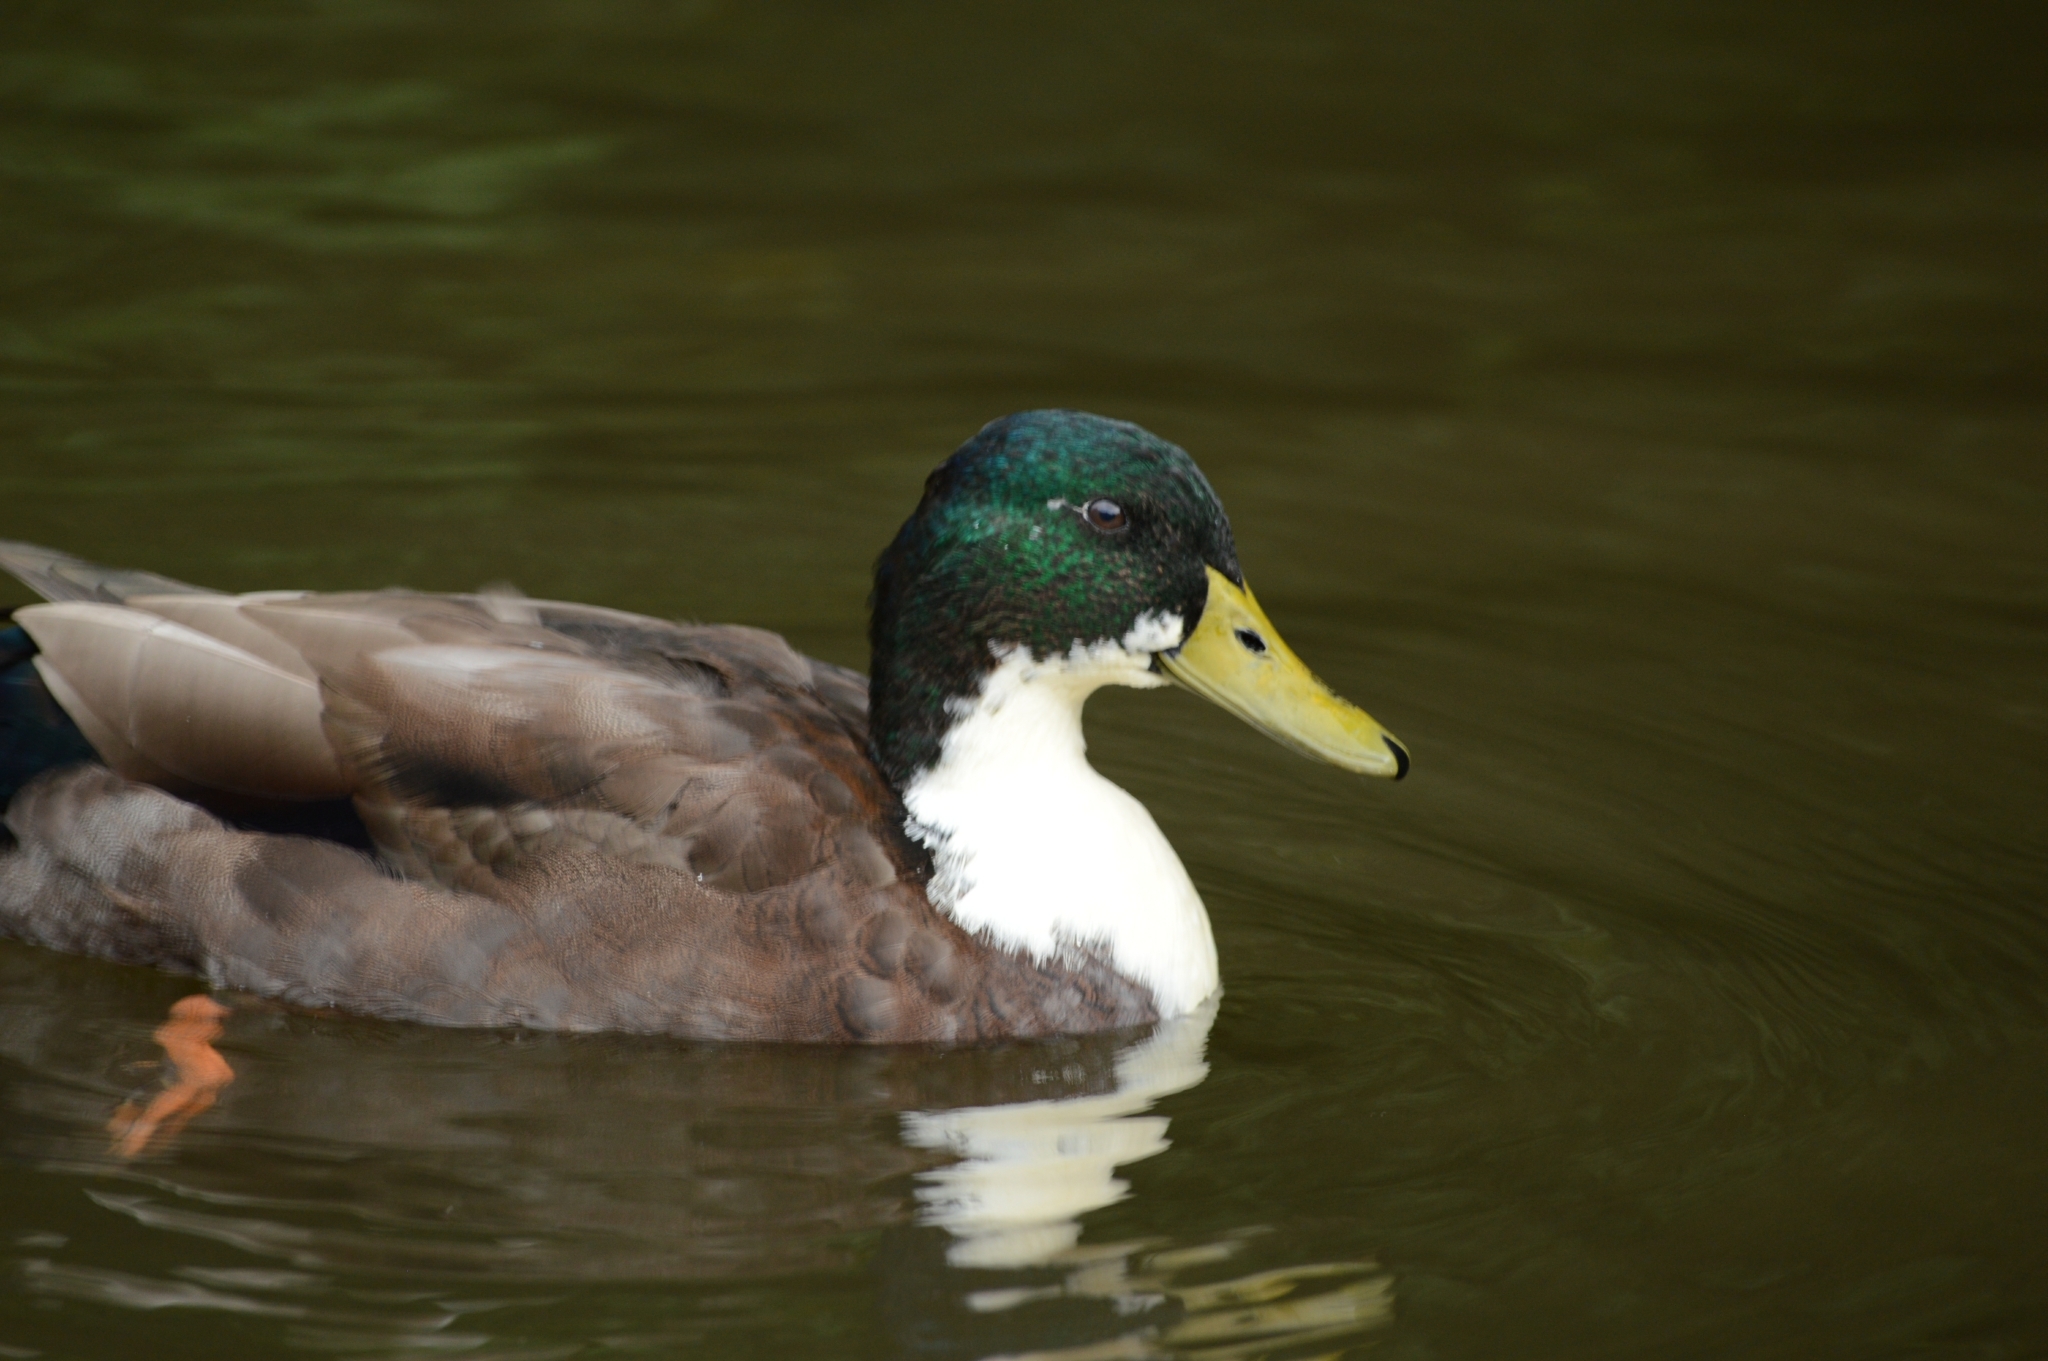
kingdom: Animalia
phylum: Chordata
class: Aves
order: Anseriformes
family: Anatidae
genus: Anas
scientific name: Anas platyrhynchos
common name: Mallard
